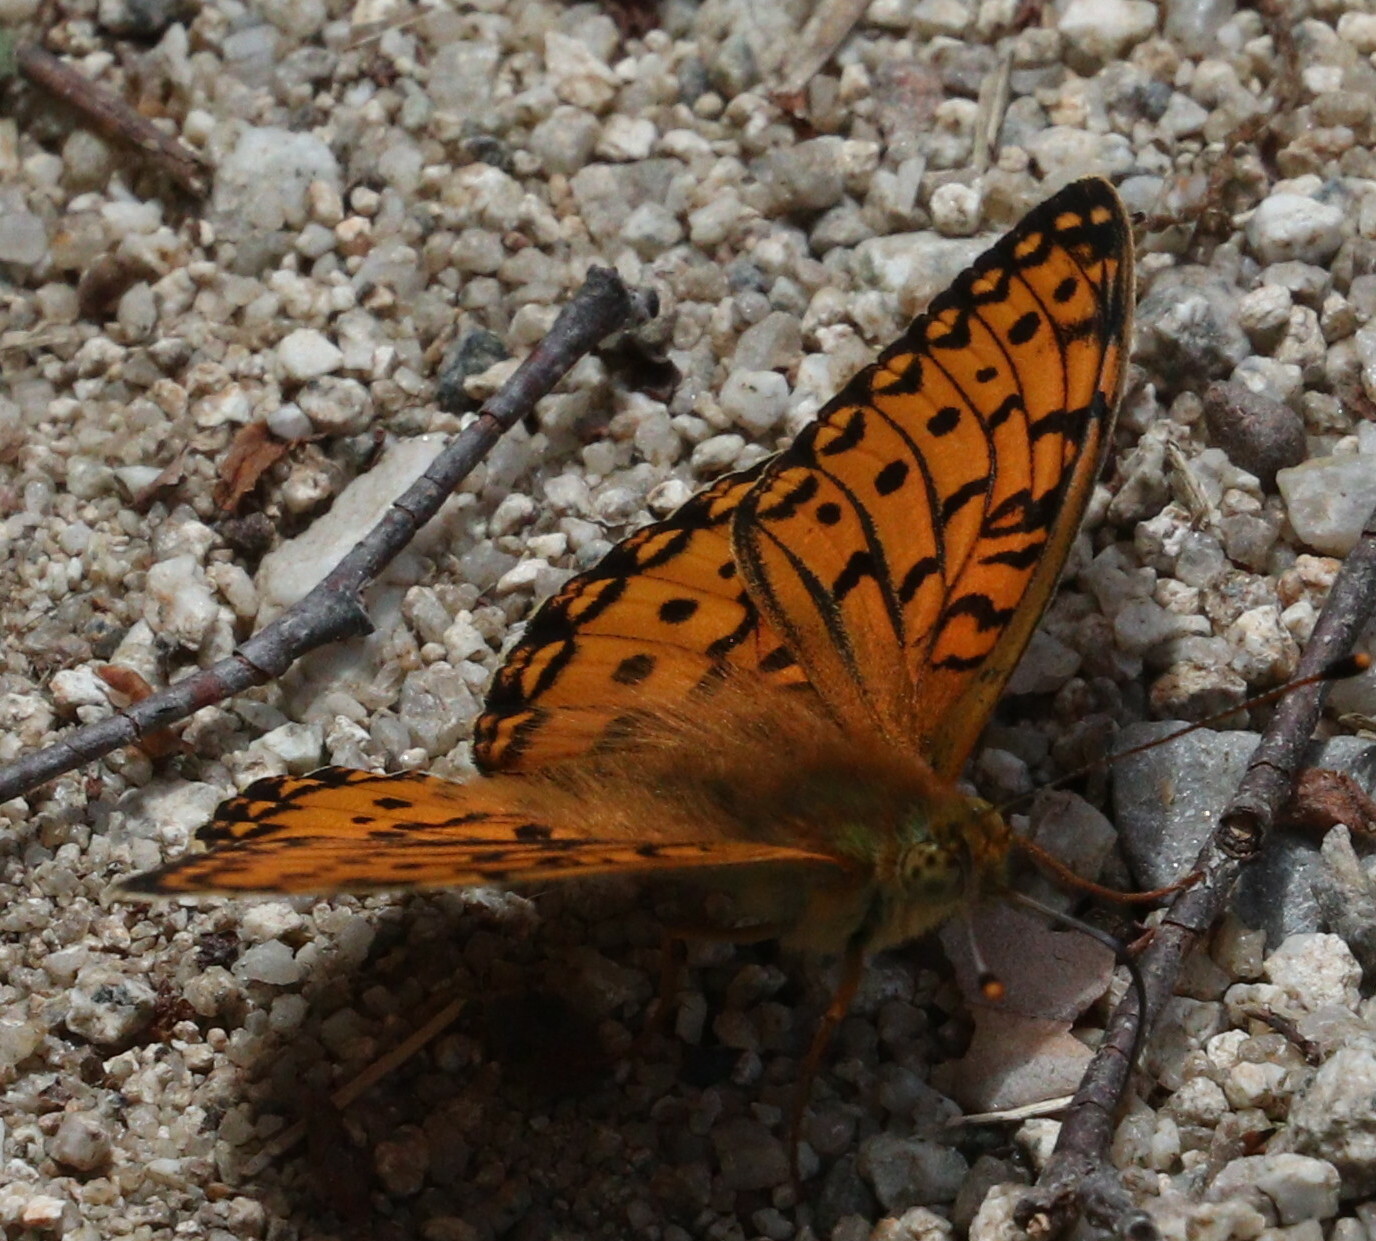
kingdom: Animalia
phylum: Arthropoda
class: Insecta
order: Lepidoptera
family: Nymphalidae
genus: Speyeria
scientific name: Speyeria aglaja
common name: Dark green fritillary
